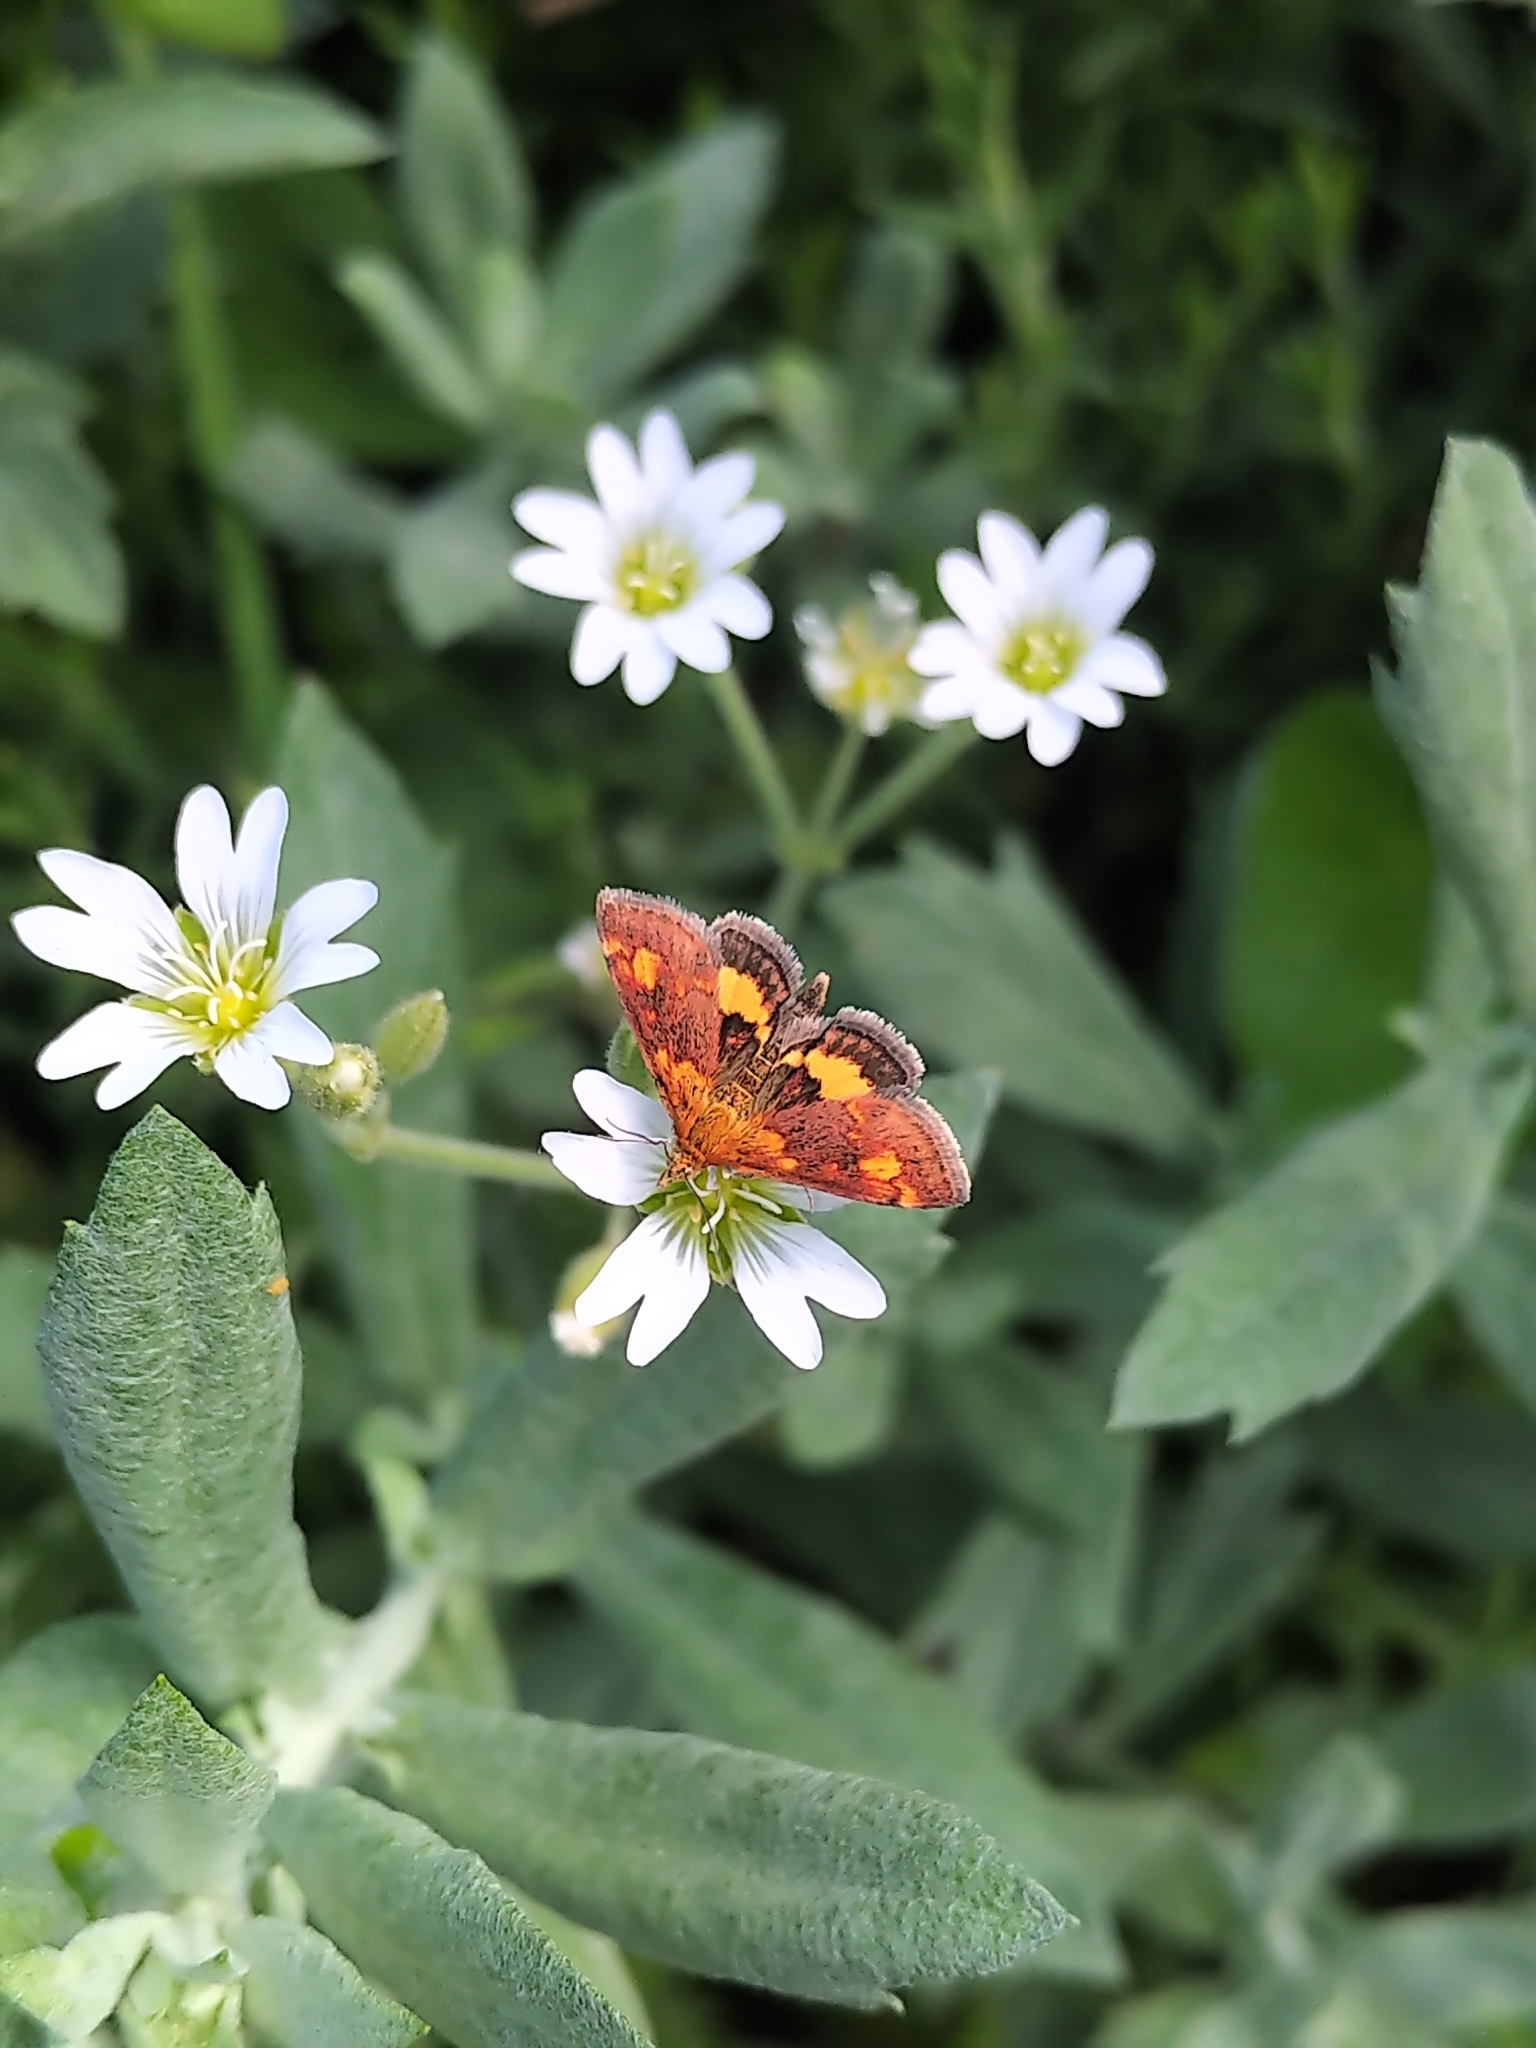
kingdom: Animalia
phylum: Arthropoda
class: Insecta
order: Lepidoptera
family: Crambidae
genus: Pyrausta
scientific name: Pyrausta orphisalis
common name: Orange mint moth
